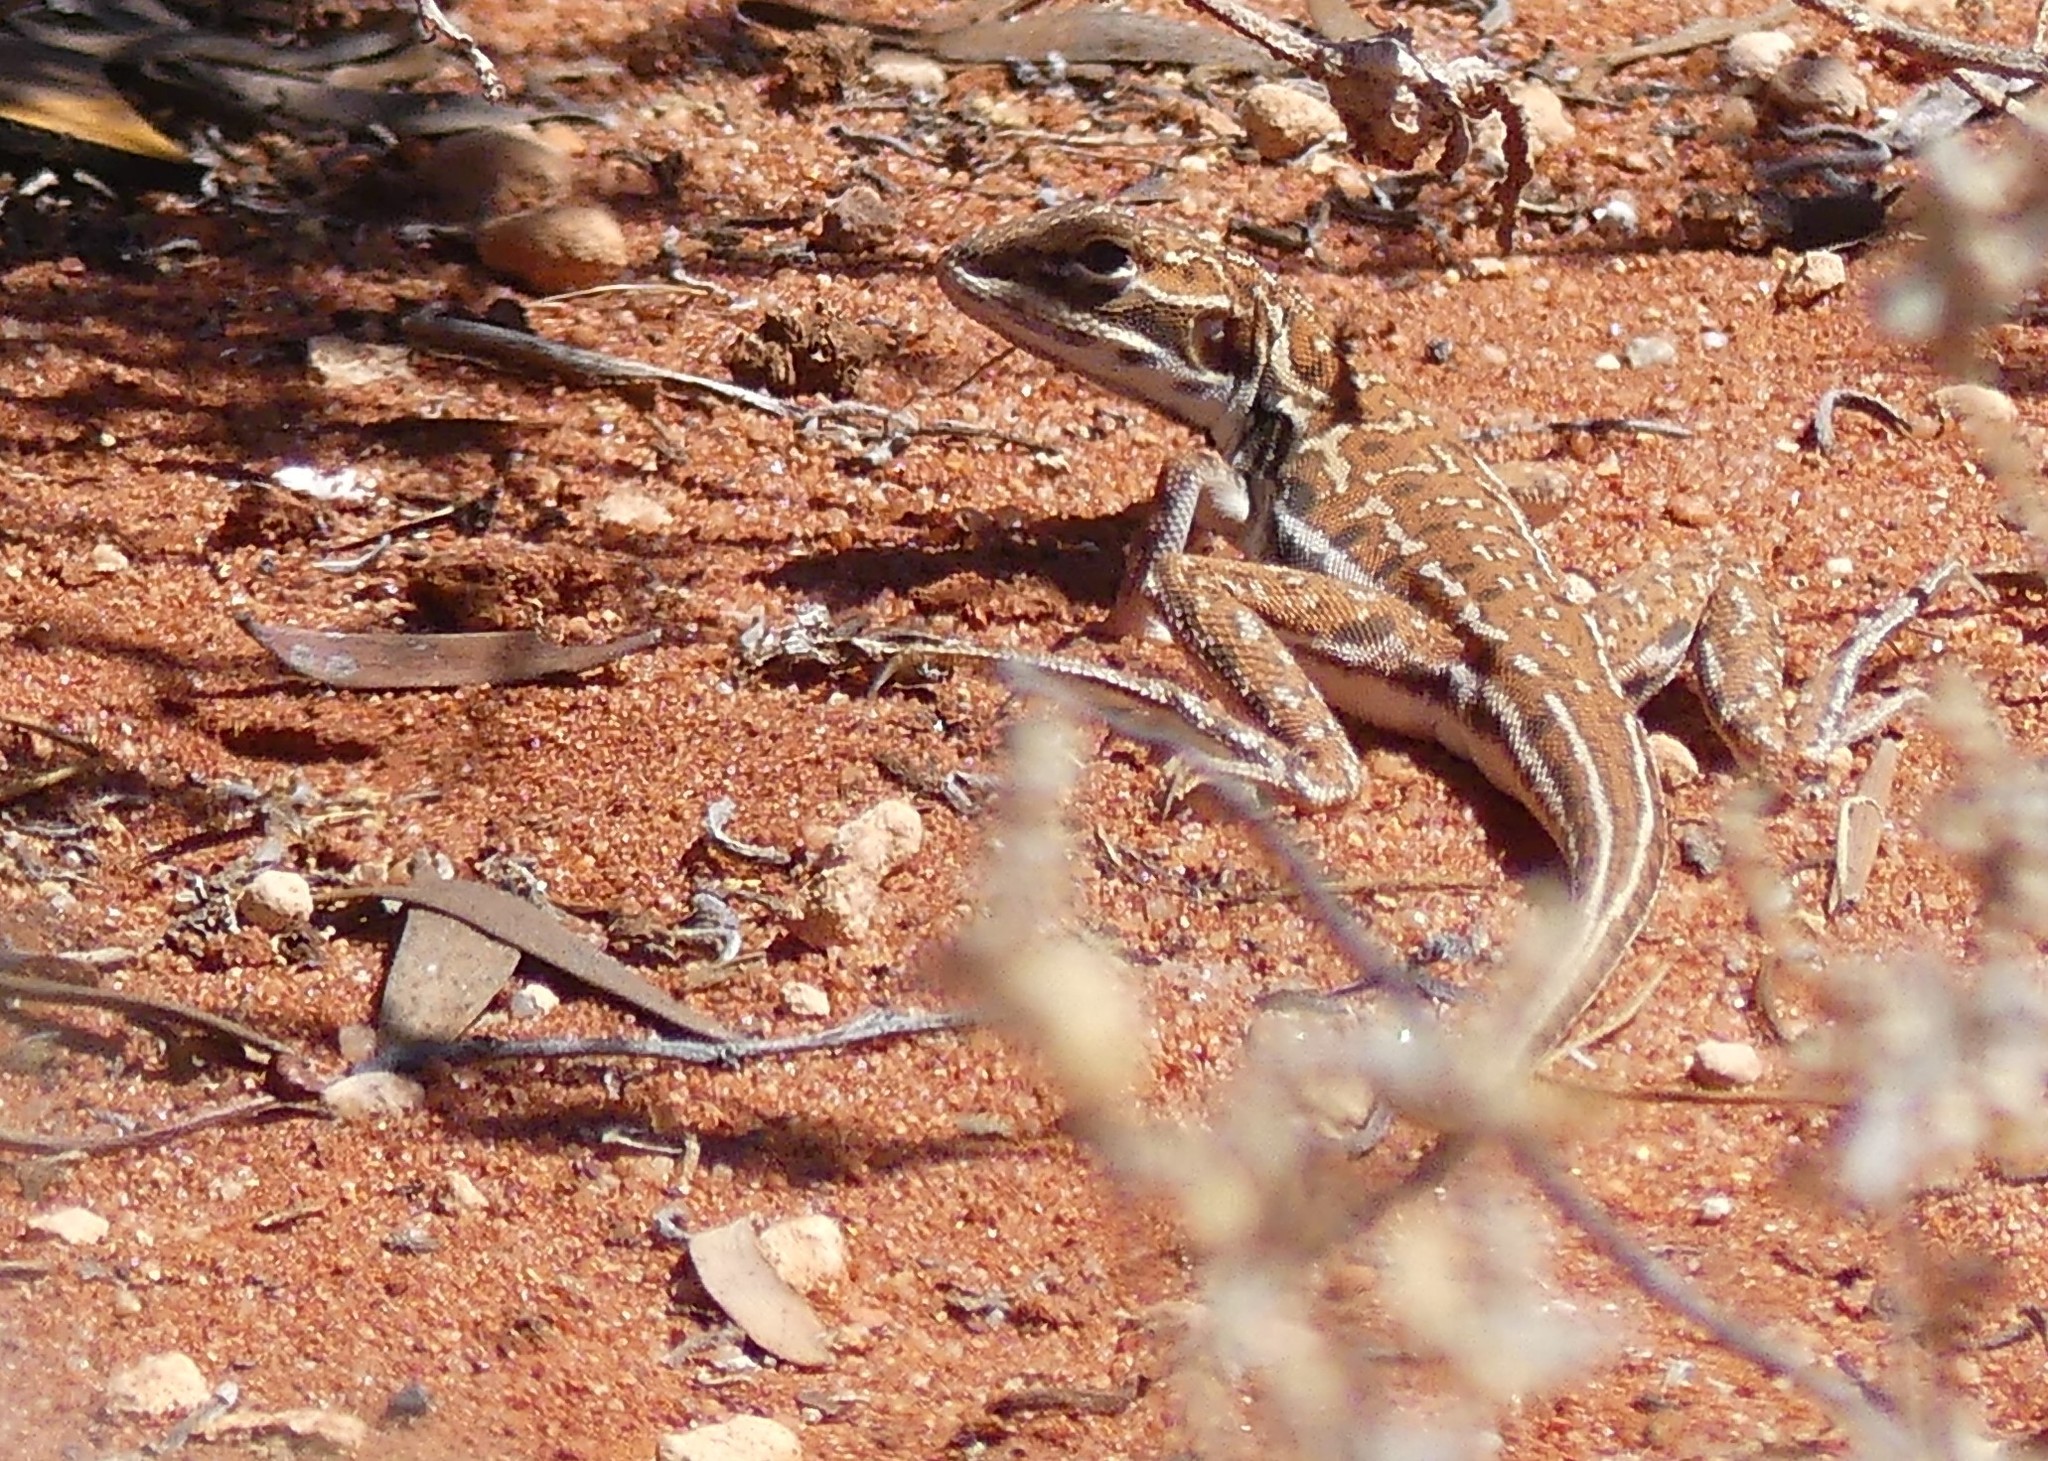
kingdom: Animalia
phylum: Chordata
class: Squamata
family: Agamidae
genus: Ctenophorus
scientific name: Ctenophorus isolepis
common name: Military dragon
